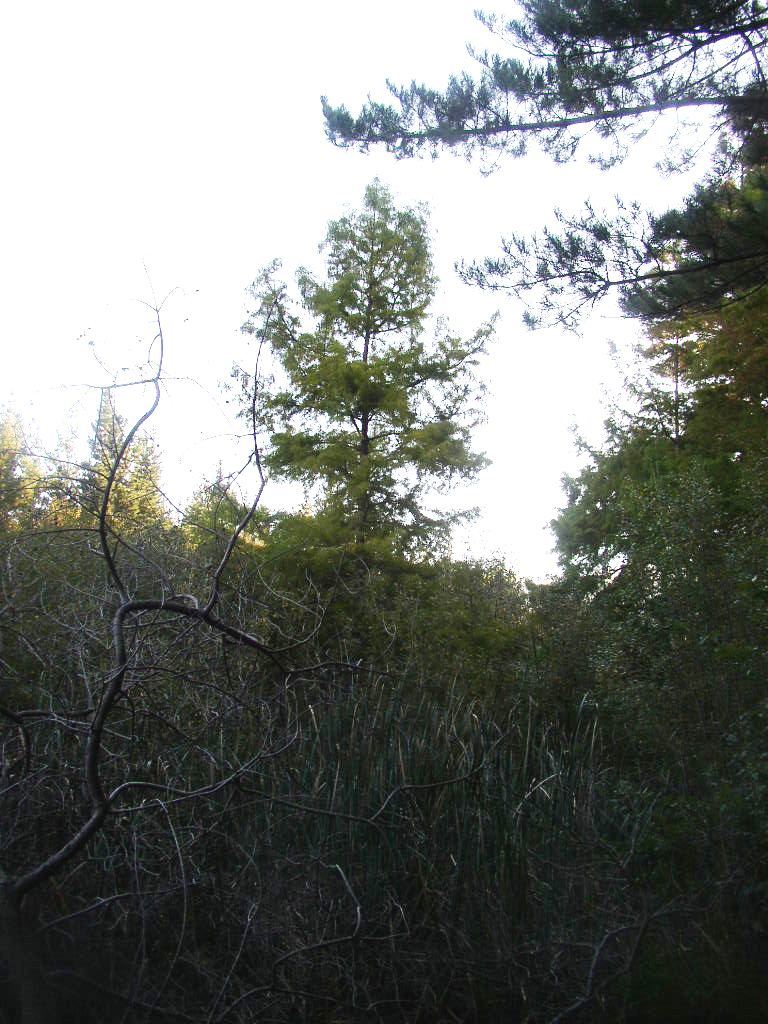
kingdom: Plantae
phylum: Tracheophyta
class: Pinopsida
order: Pinales
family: Cupressaceae
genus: Taxodium
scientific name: Taxodium distichum
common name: Bald cypress
